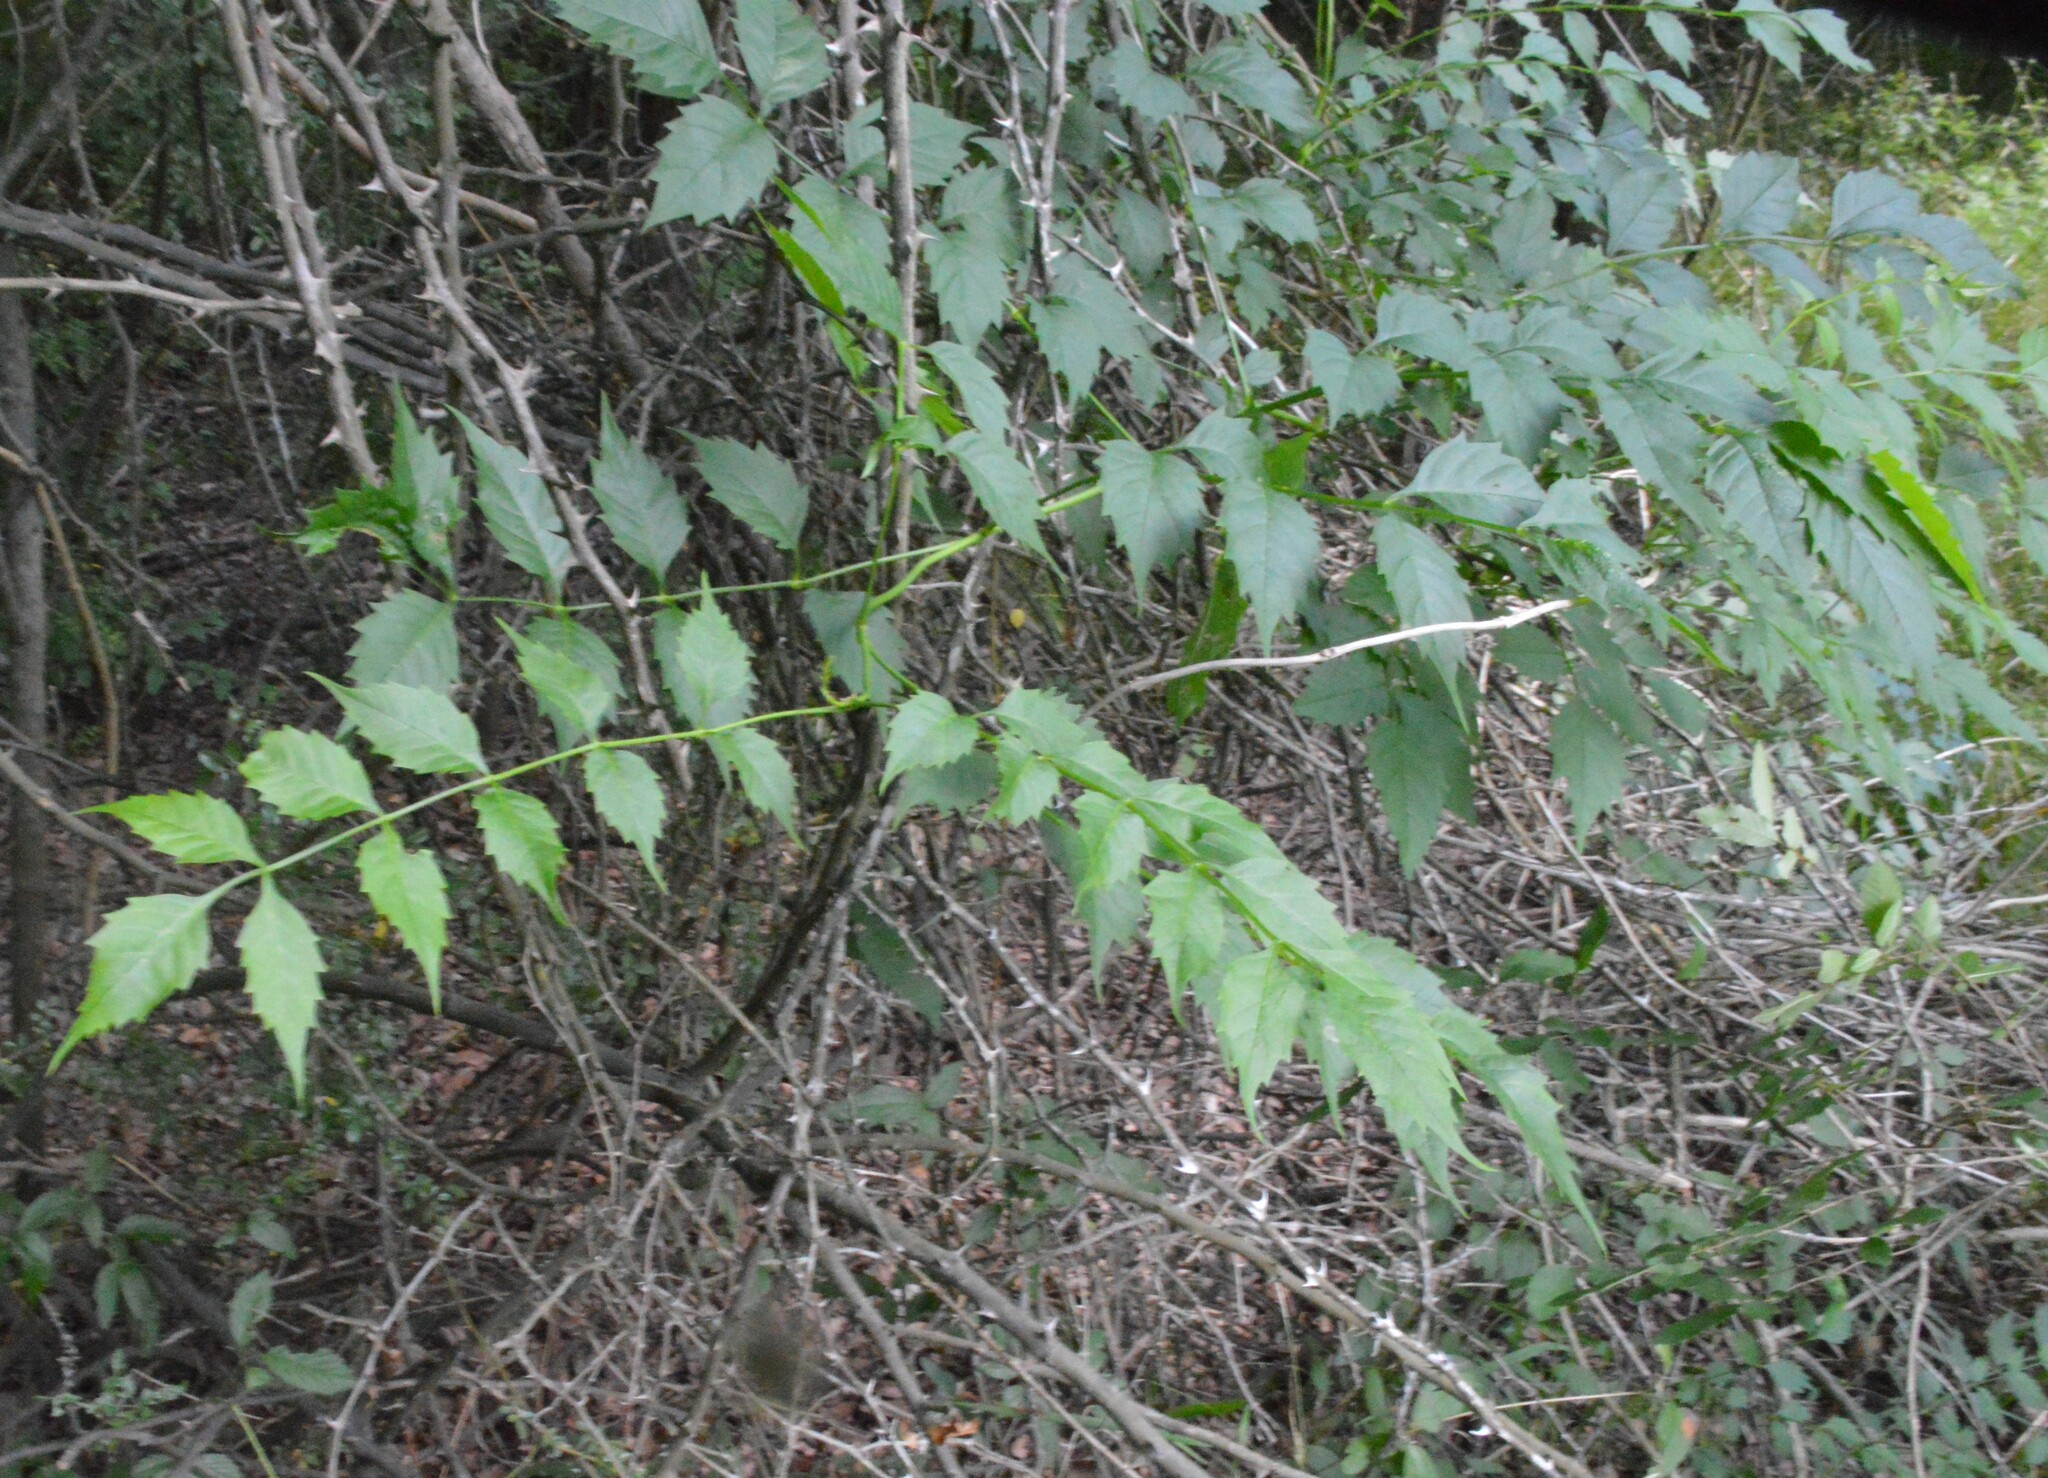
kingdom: Plantae
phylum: Tracheophyta
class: Magnoliopsida
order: Lamiales
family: Bignoniaceae
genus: Campsis
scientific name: Campsis radicans
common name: Trumpet-creeper
